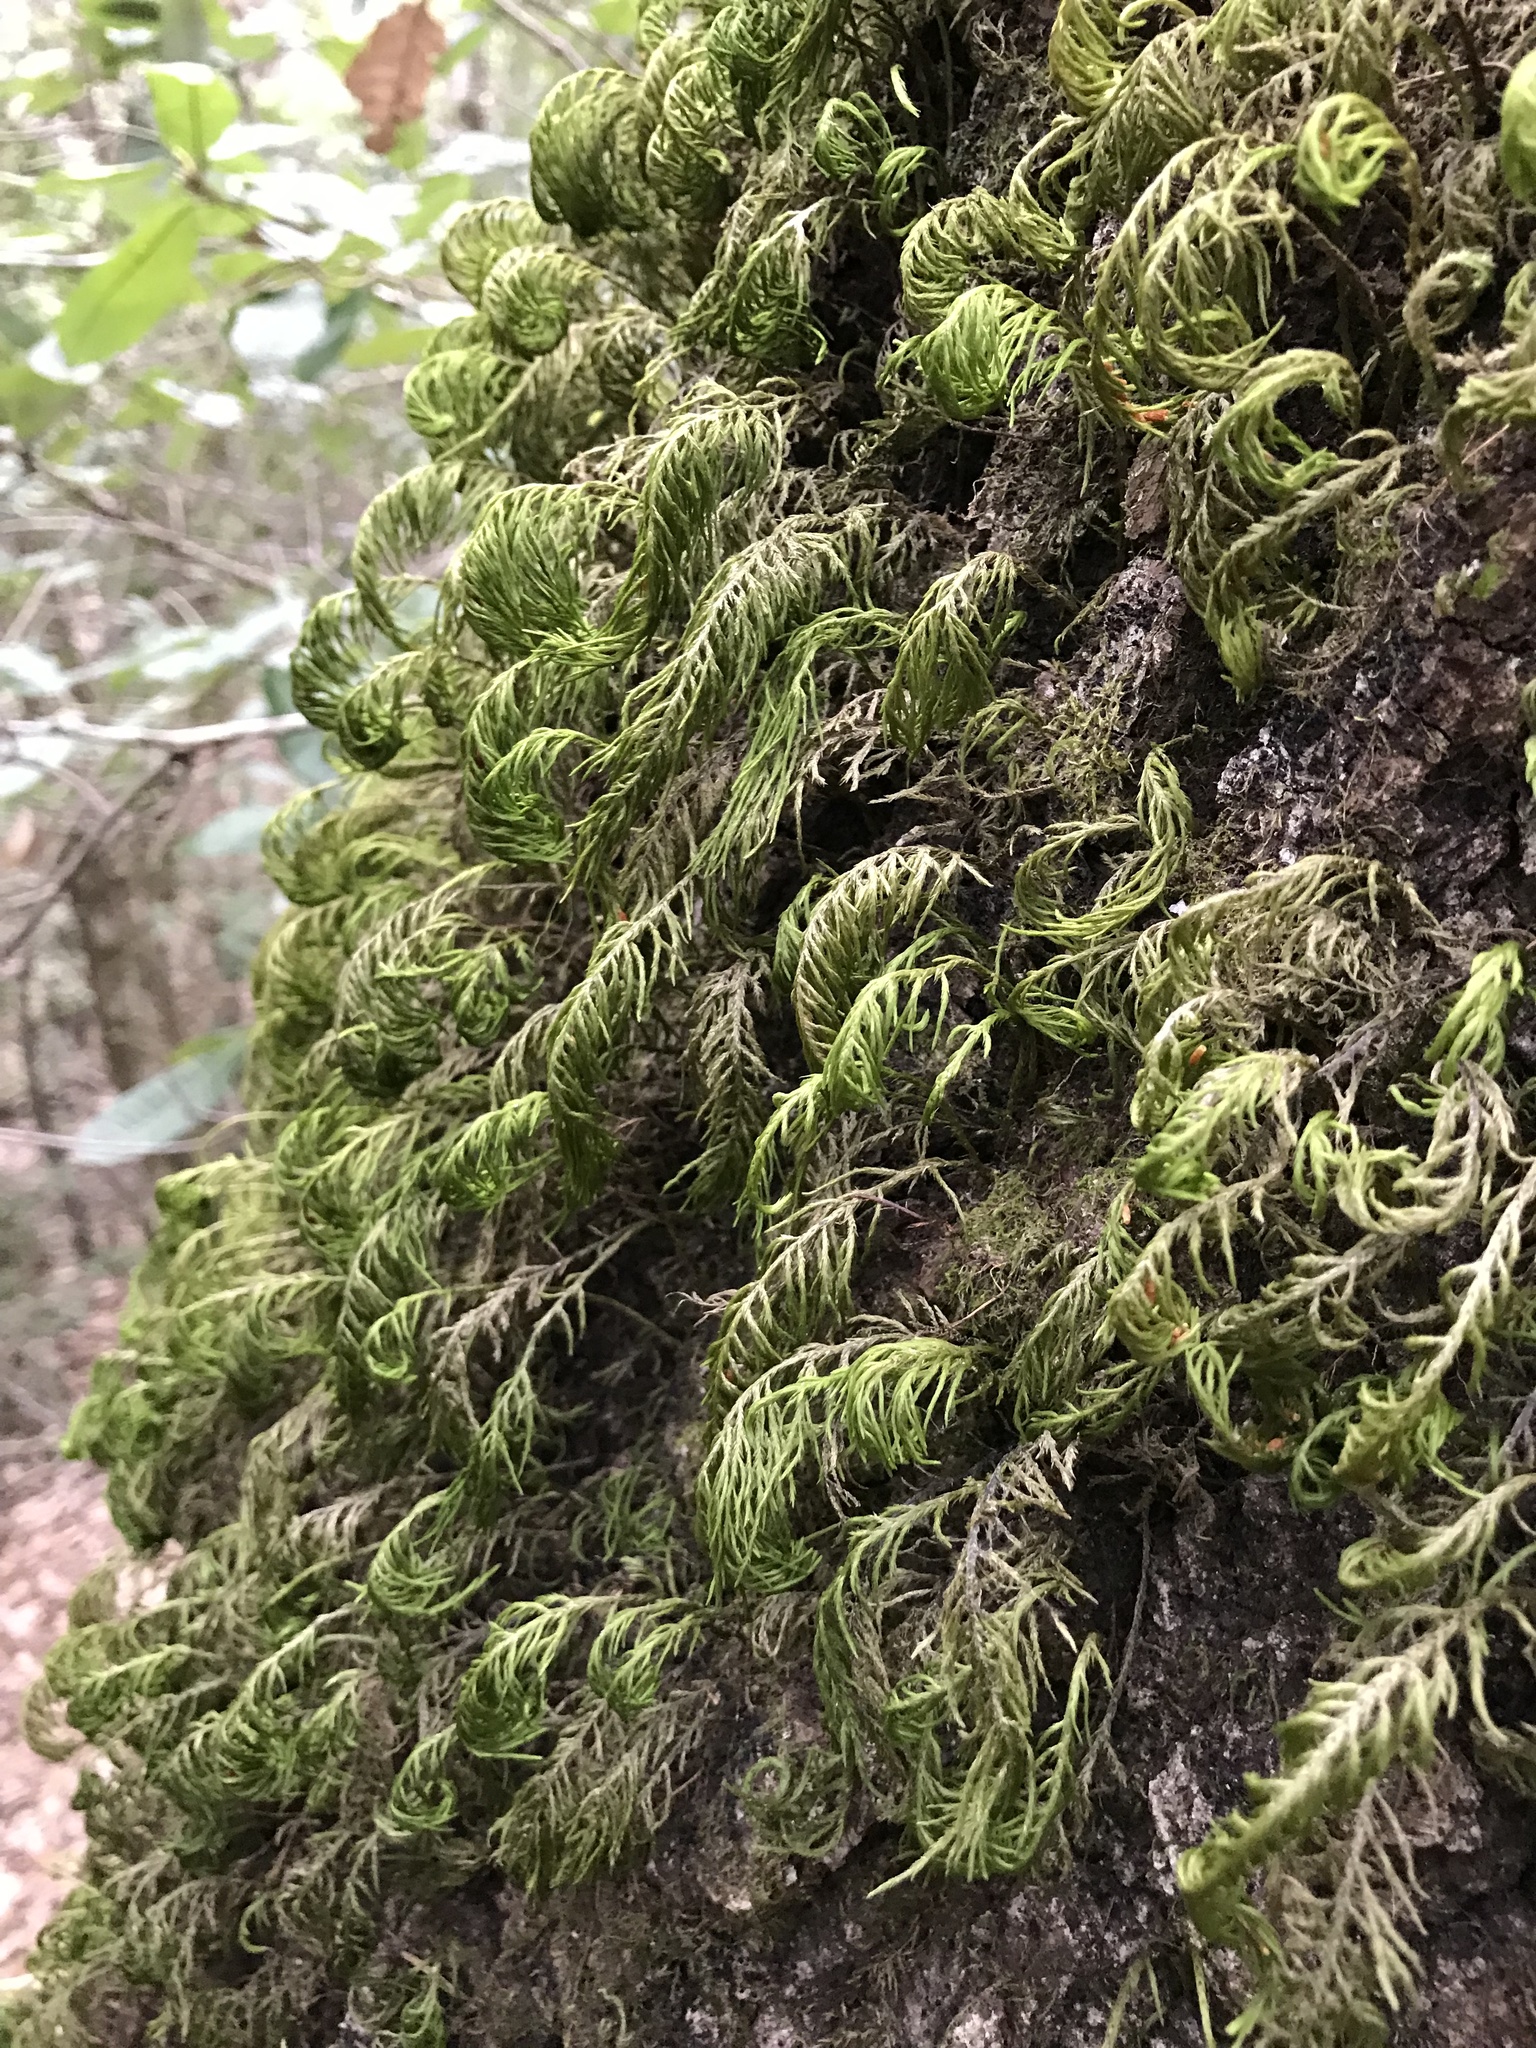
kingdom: Plantae
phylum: Bryophyta
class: Bryopsida
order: Hypnales
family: Cryphaeaceae
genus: Dendroalsia
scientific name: Dendroalsia abietina
